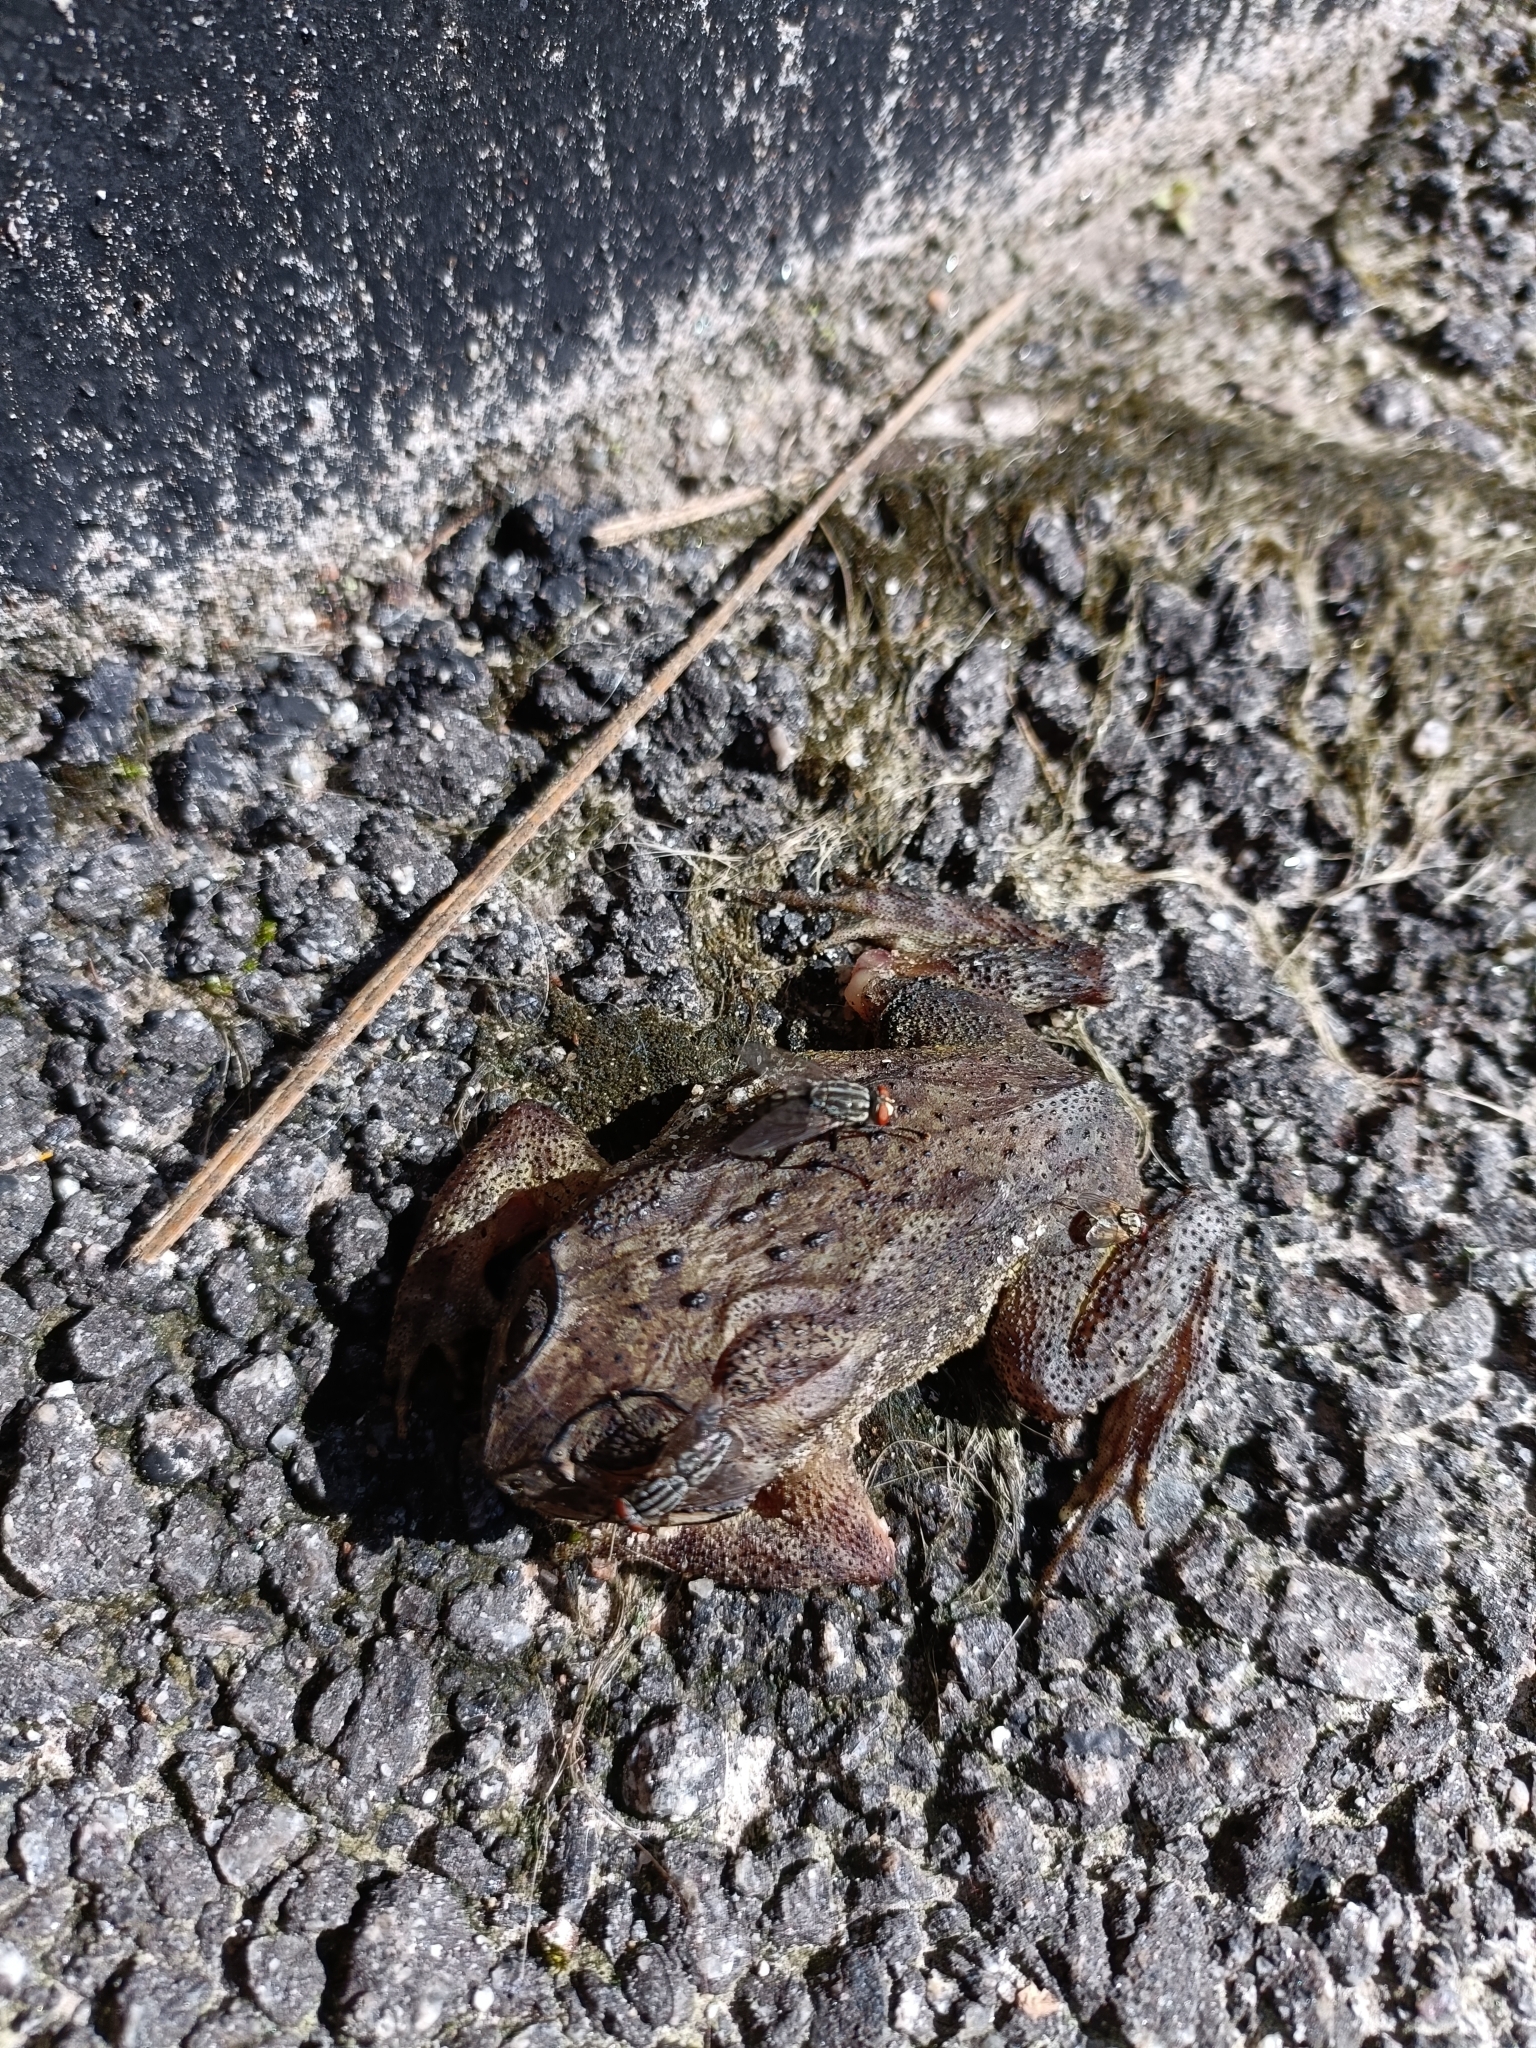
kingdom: Animalia
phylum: Chordata
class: Amphibia
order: Anura
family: Bufonidae
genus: Duttaphrynus
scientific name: Duttaphrynus melanostictus
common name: Common sunda toad
